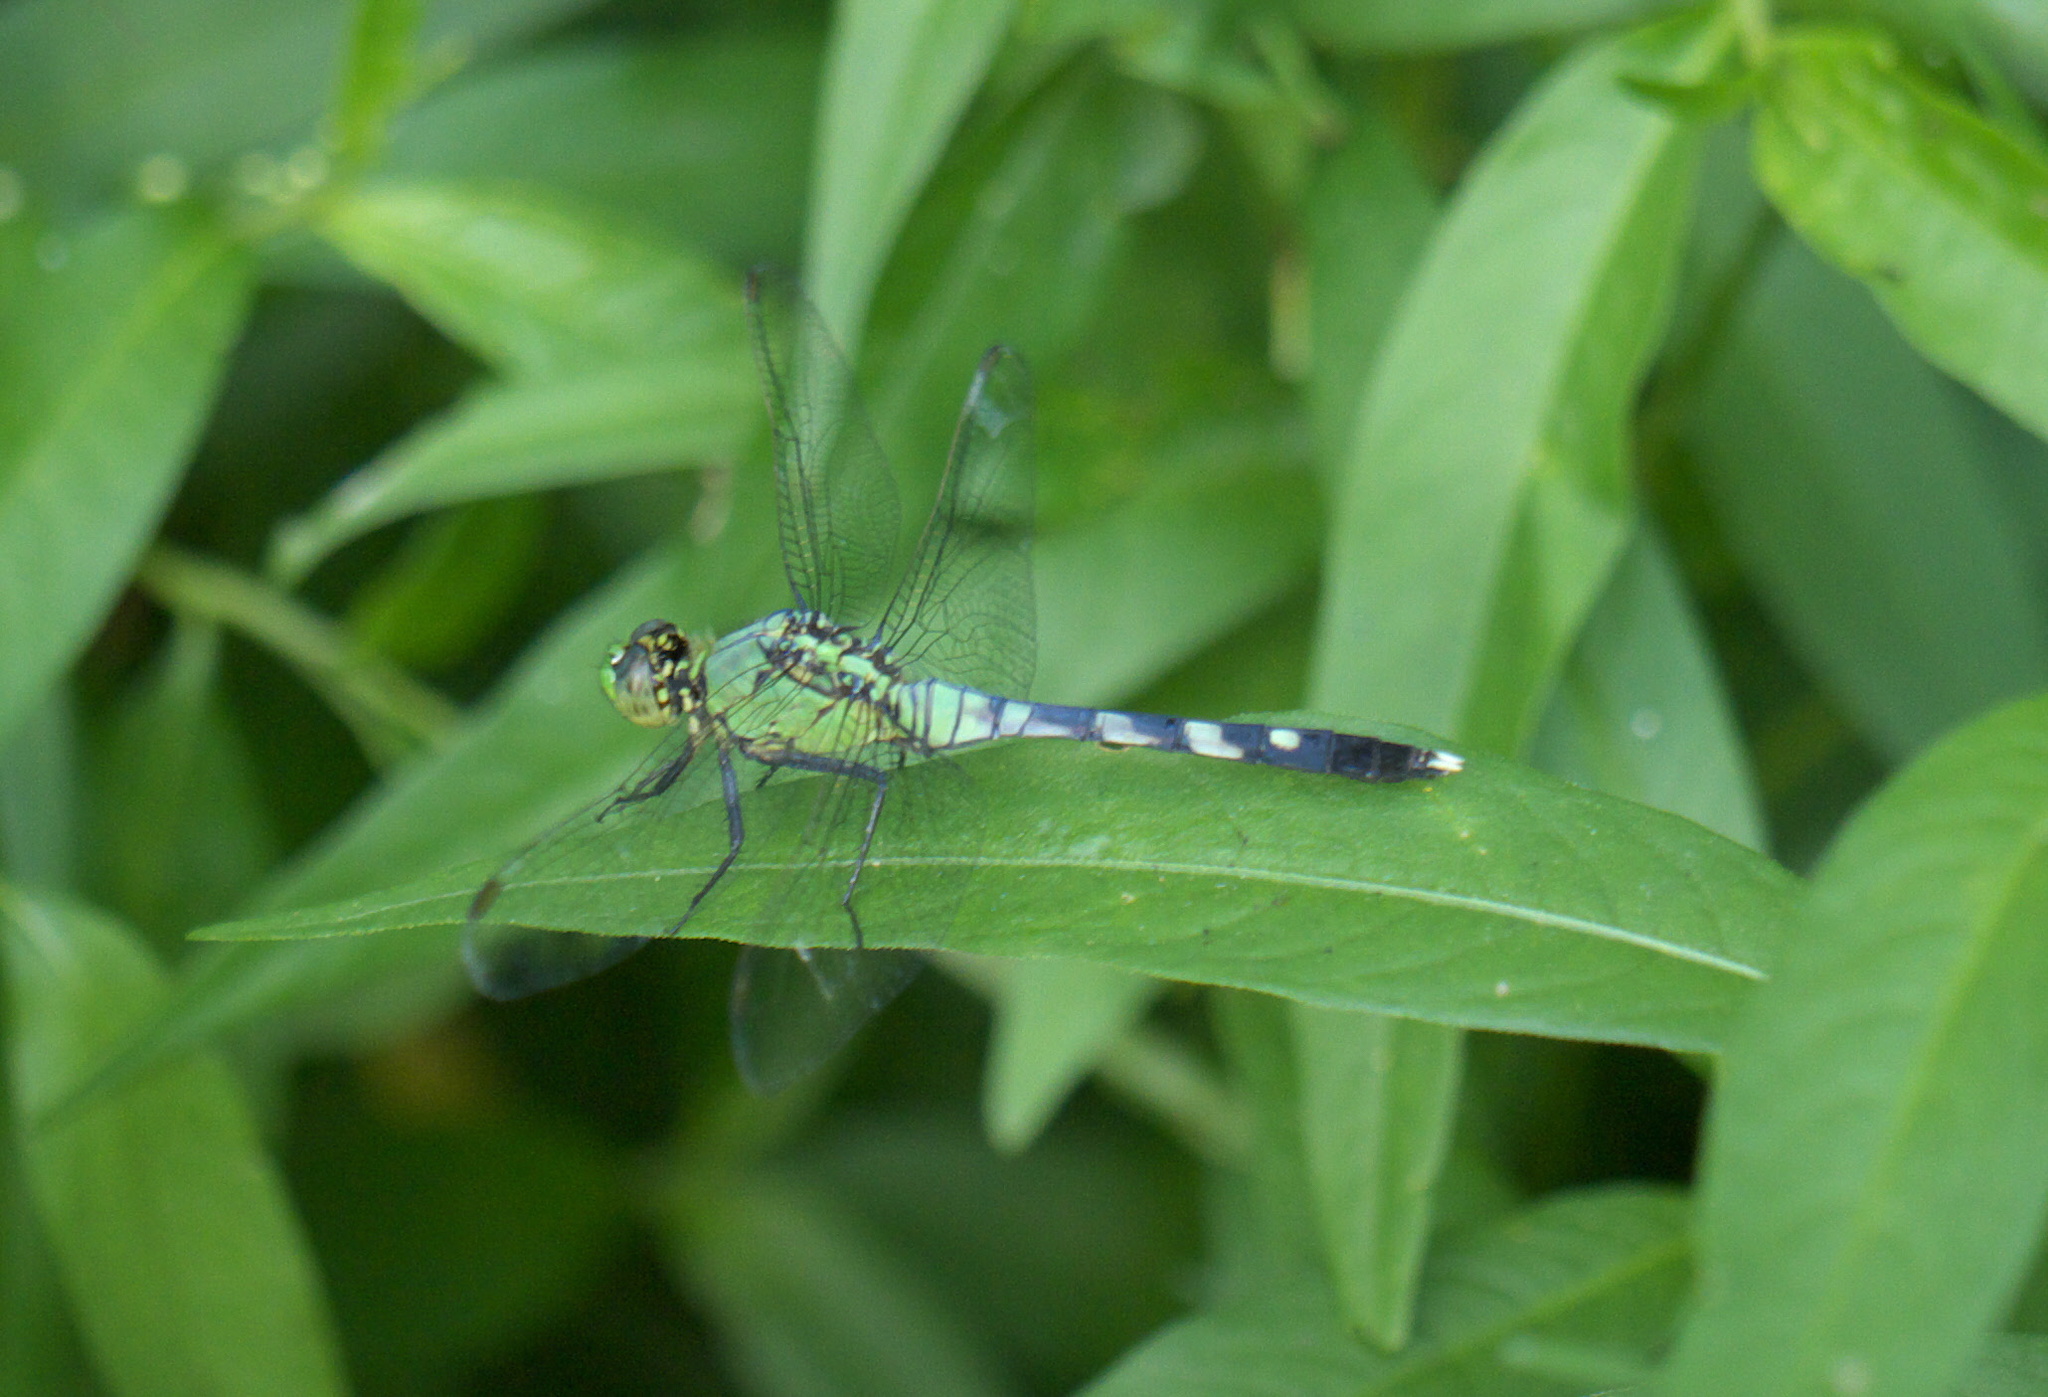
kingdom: Animalia
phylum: Arthropoda
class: Insecta
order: Odonata
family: Libellulidae
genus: Erythemis
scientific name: Erythemis simplicicollis
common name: Eastern pondhawk
